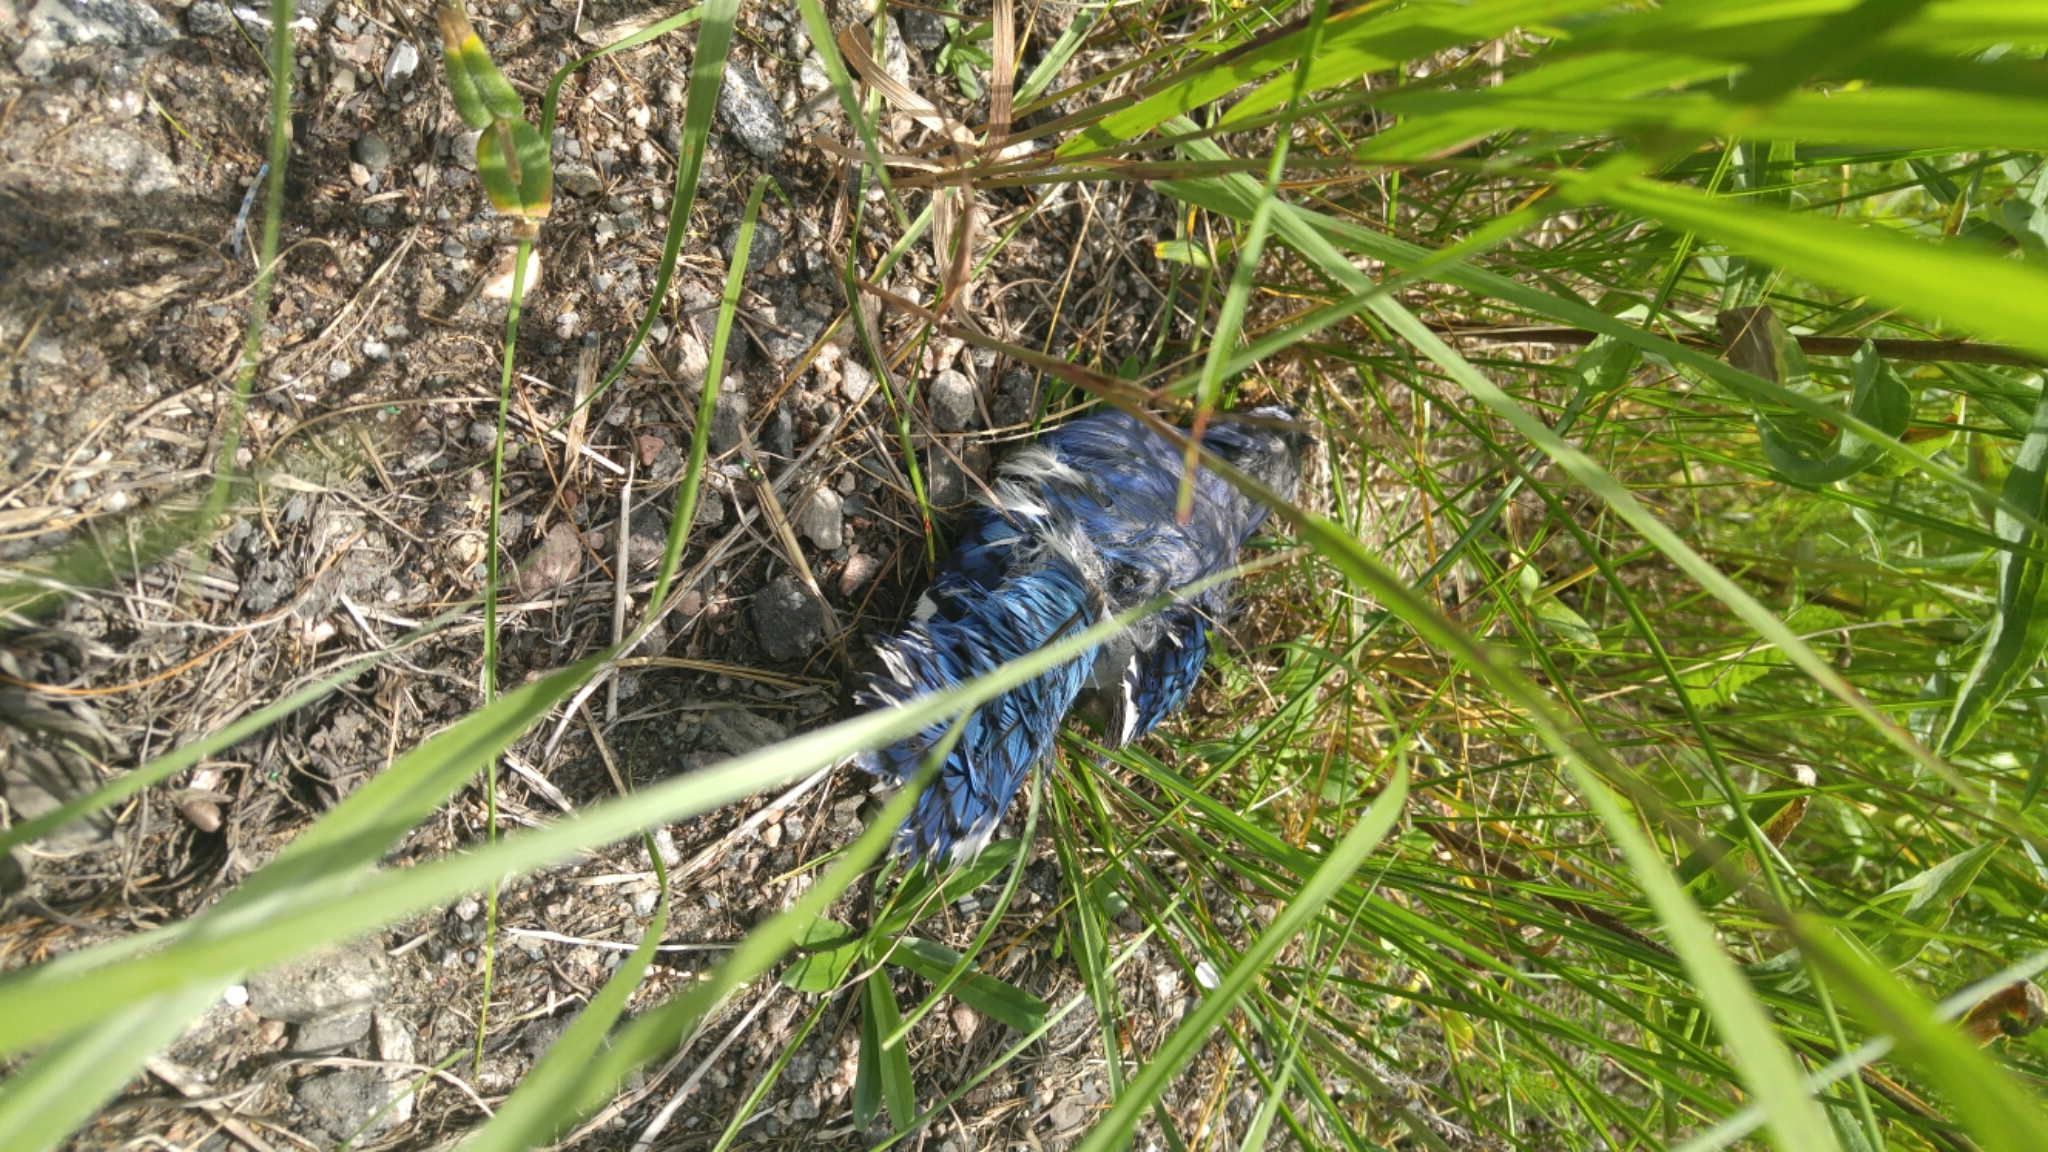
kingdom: Animalia
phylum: Chordata
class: Aves
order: Passeriformes
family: Corvidae
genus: Cyanocitta
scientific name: Cyanocitta cristata
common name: Blue jay
